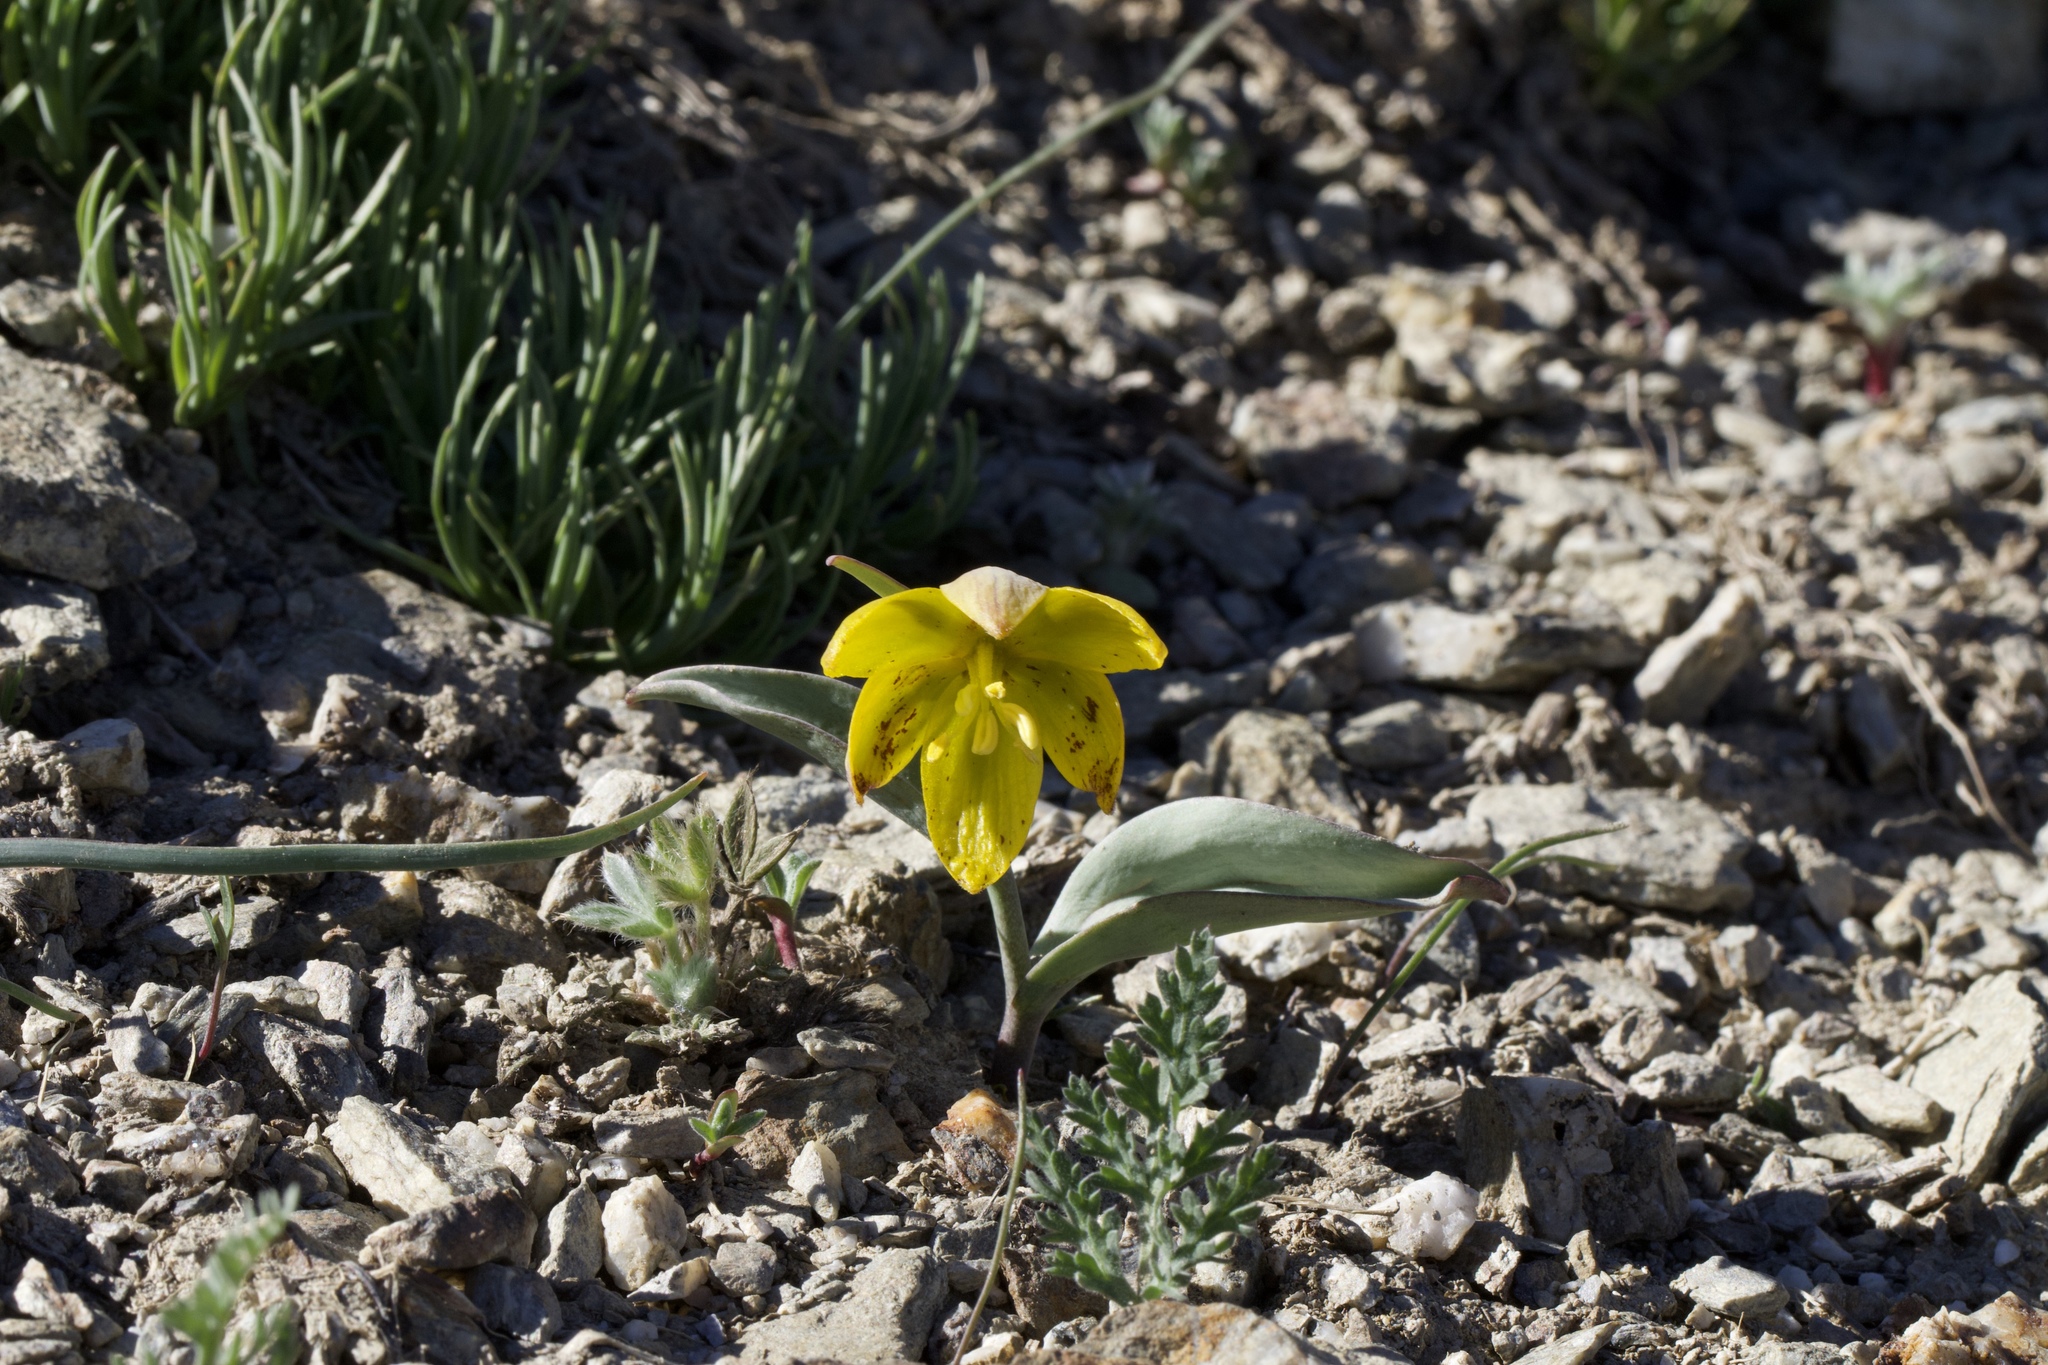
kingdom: Plantae
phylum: Tracheophyta
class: Liliopsida
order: Liliales
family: Liliaceae
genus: Fritillaria
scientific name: Fritillaria glauca
